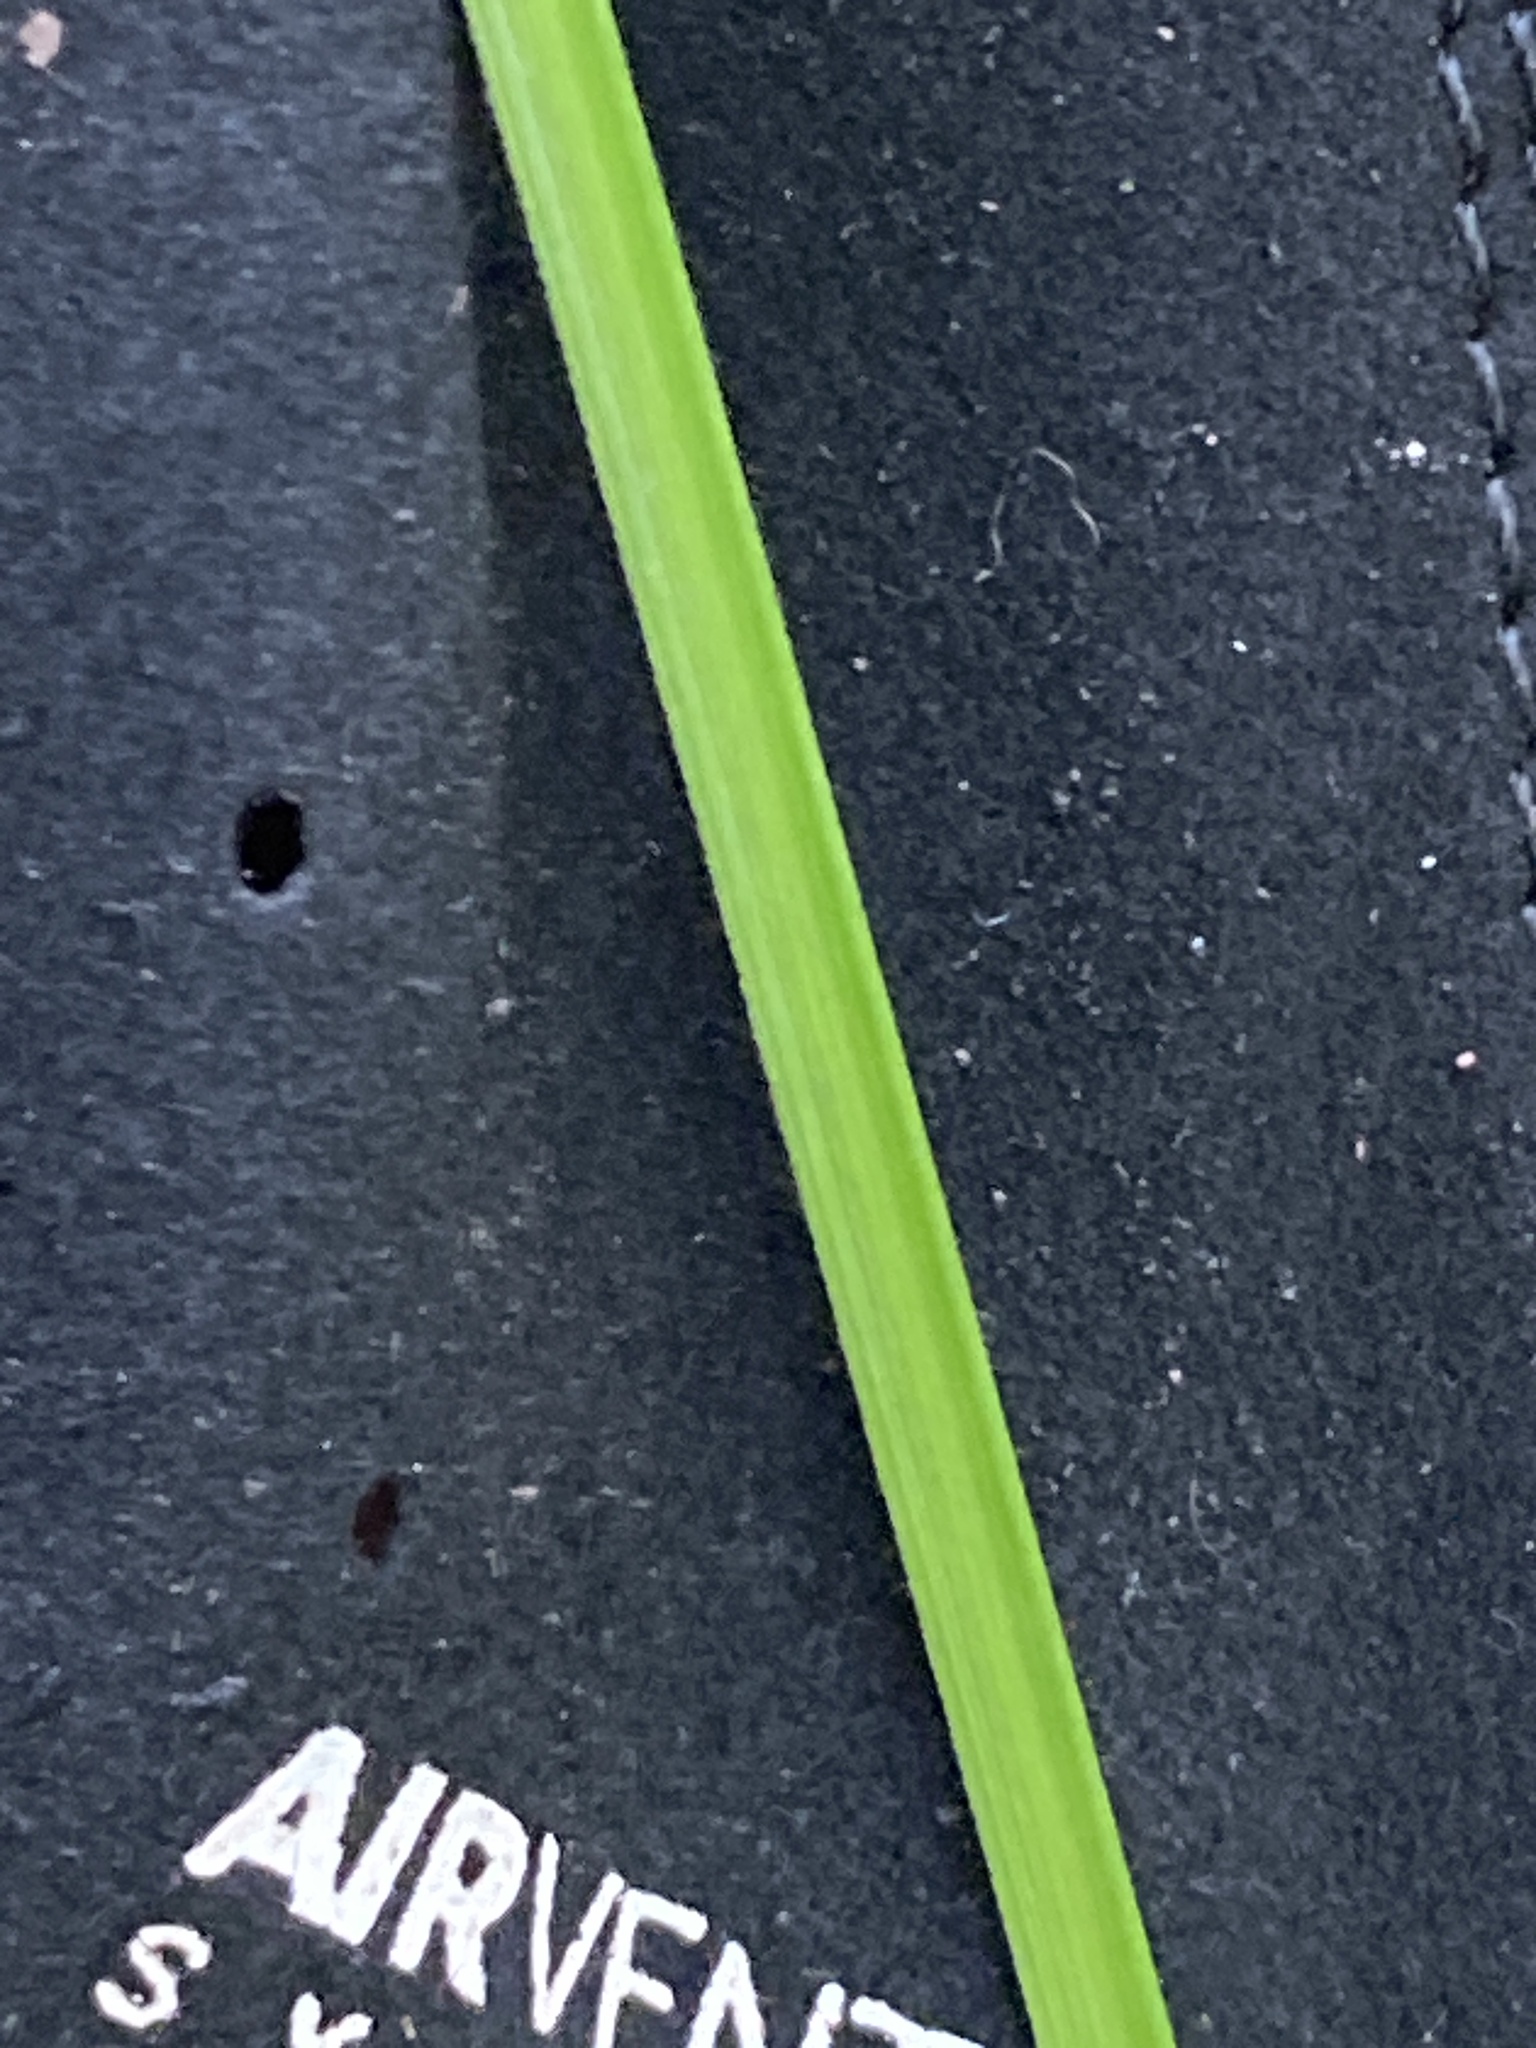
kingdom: Plantae
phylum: Tracheophyta
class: Liliopsida
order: Poales
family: Cyperaceae
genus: Carex
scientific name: Carex pseudocyperus
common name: Cyperus sedge
